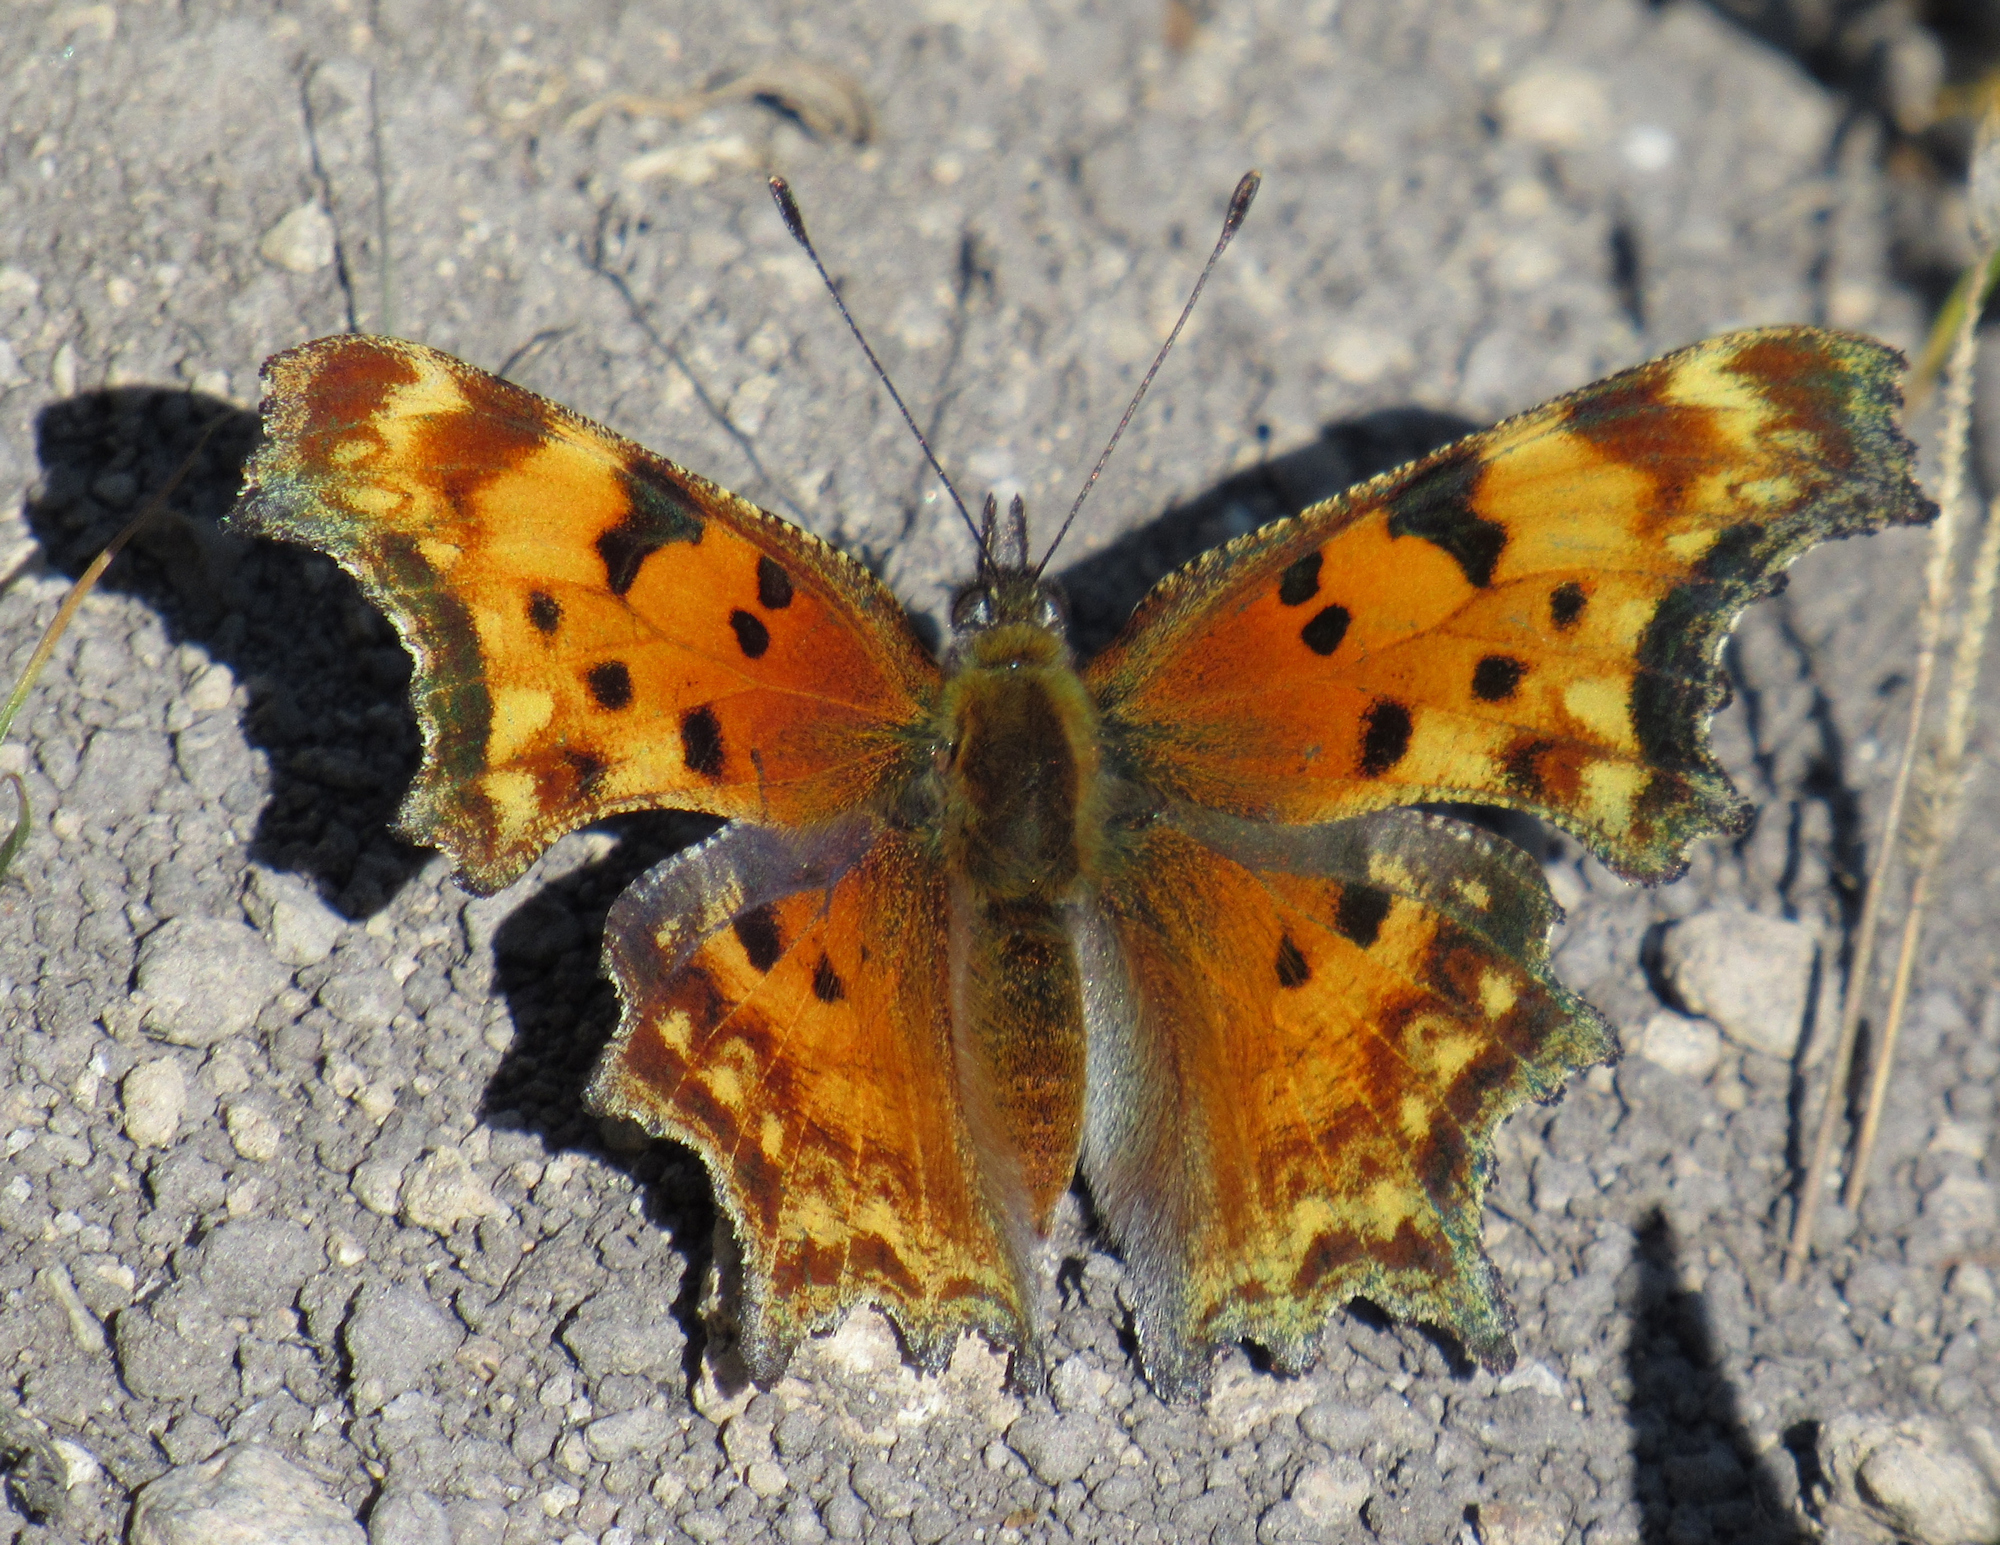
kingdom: Animalia
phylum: Arthropoda
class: Insecta
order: Lepidoptera
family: Nymphalidae
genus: Polygonia
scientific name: Polygonia gracilis
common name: Hoary comma
